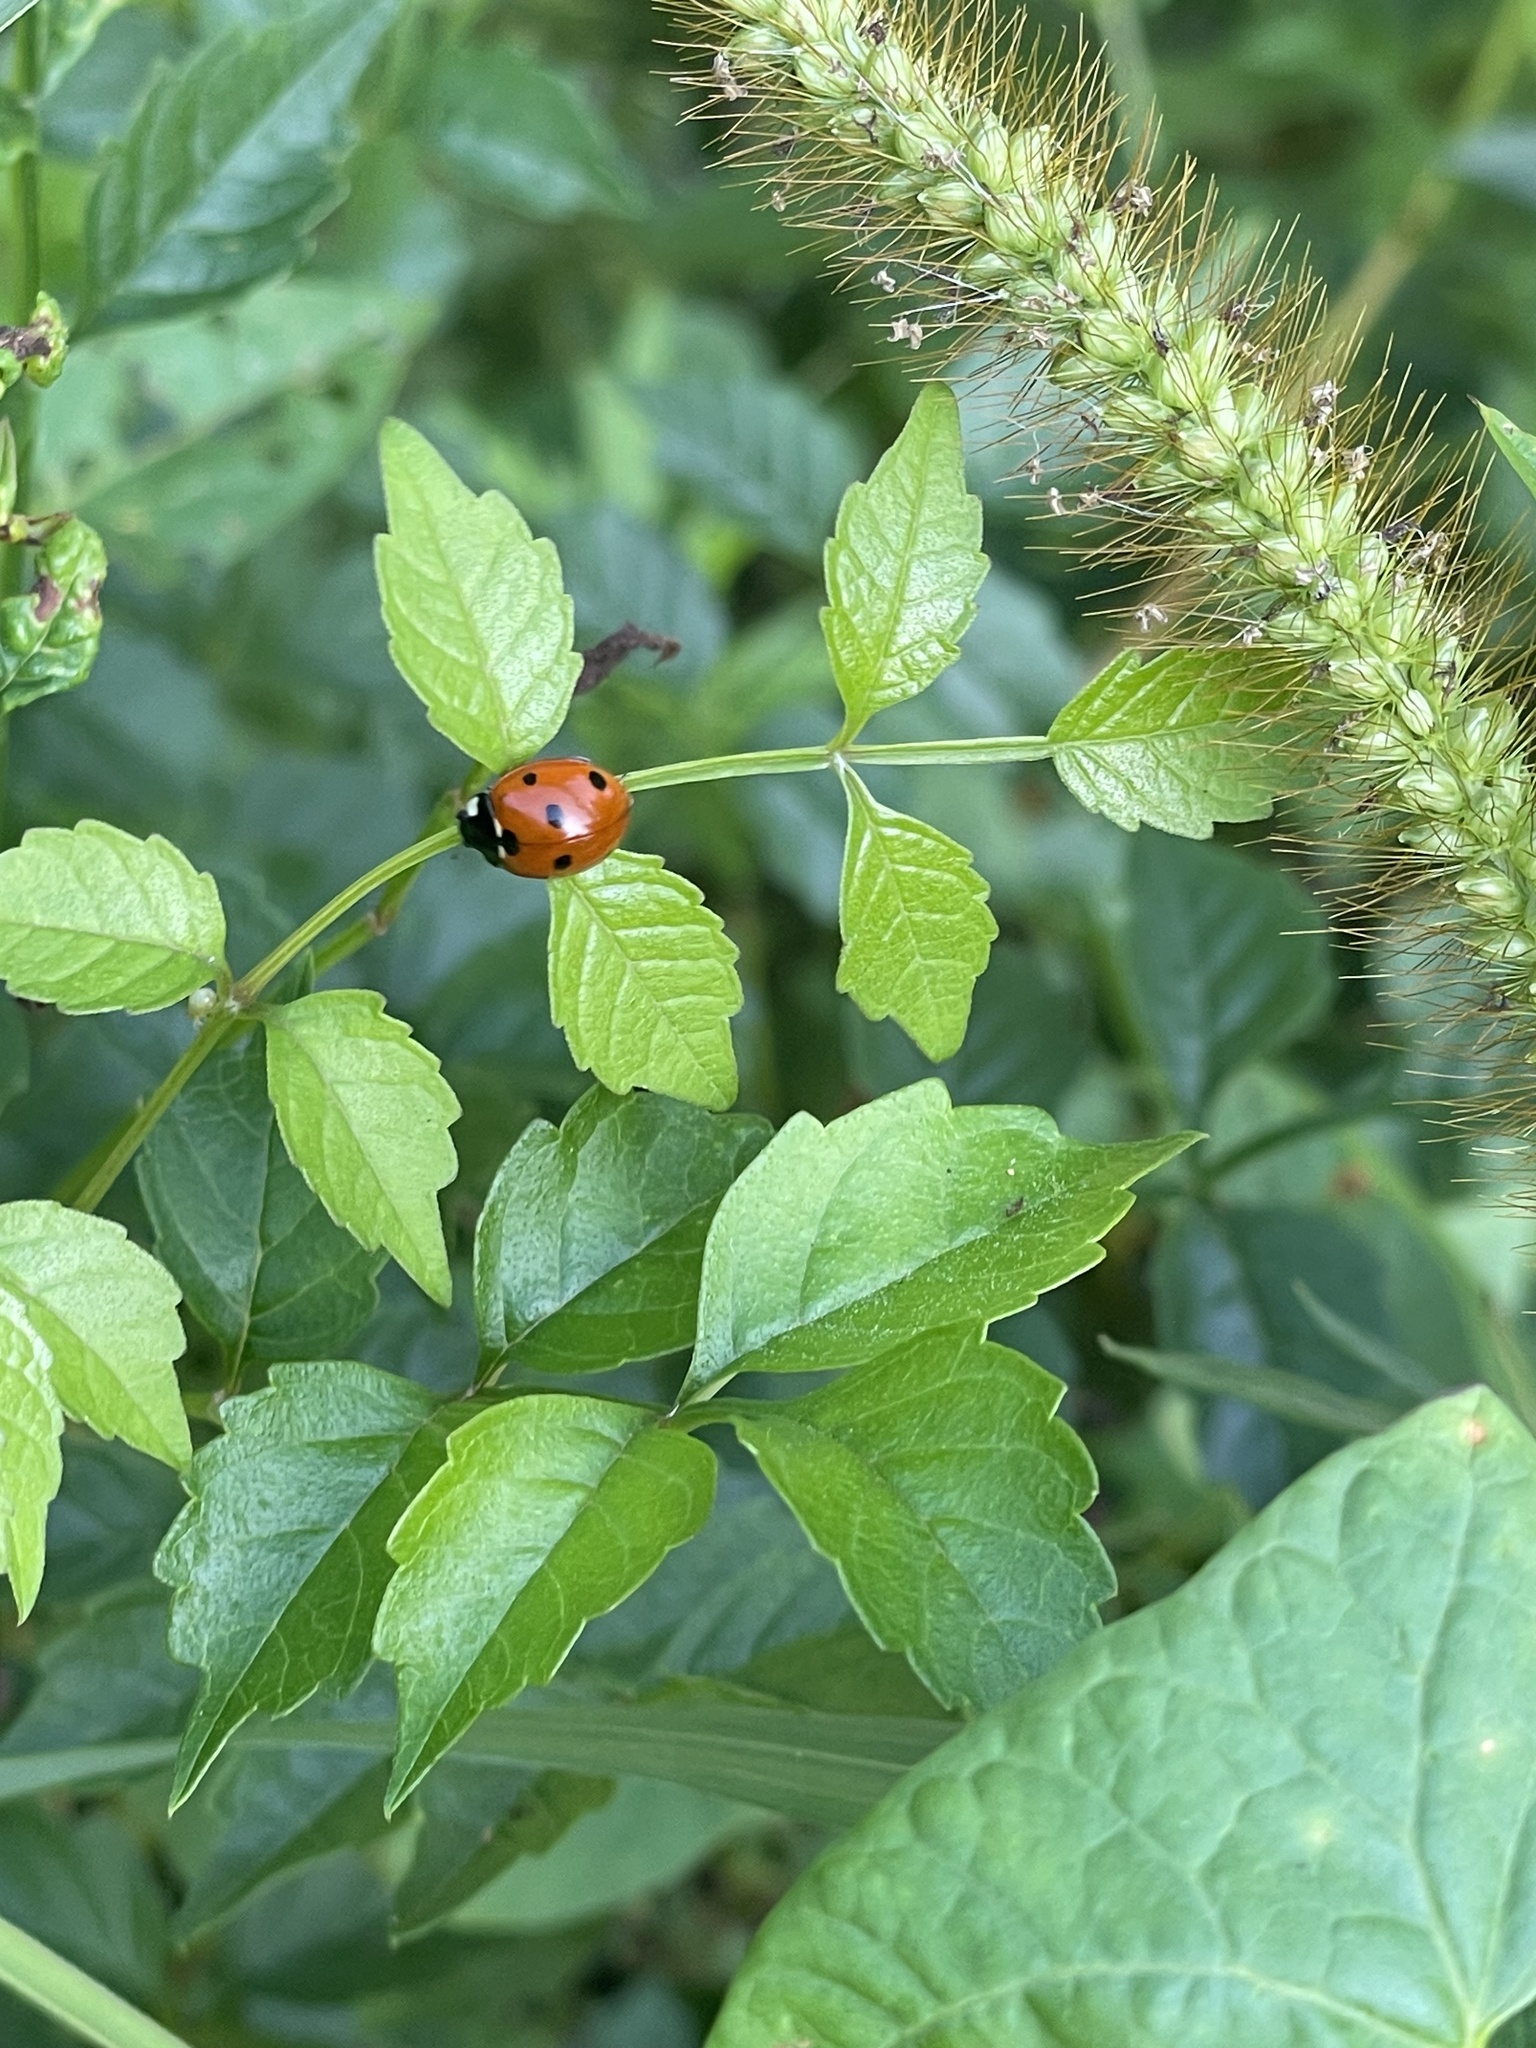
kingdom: Animalia
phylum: Arthropoda
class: Insecta
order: Coleoptera
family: Coccinellidae
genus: Coccinella
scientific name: Coccinella septempunctata
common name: Sevenspotted lady beetle
